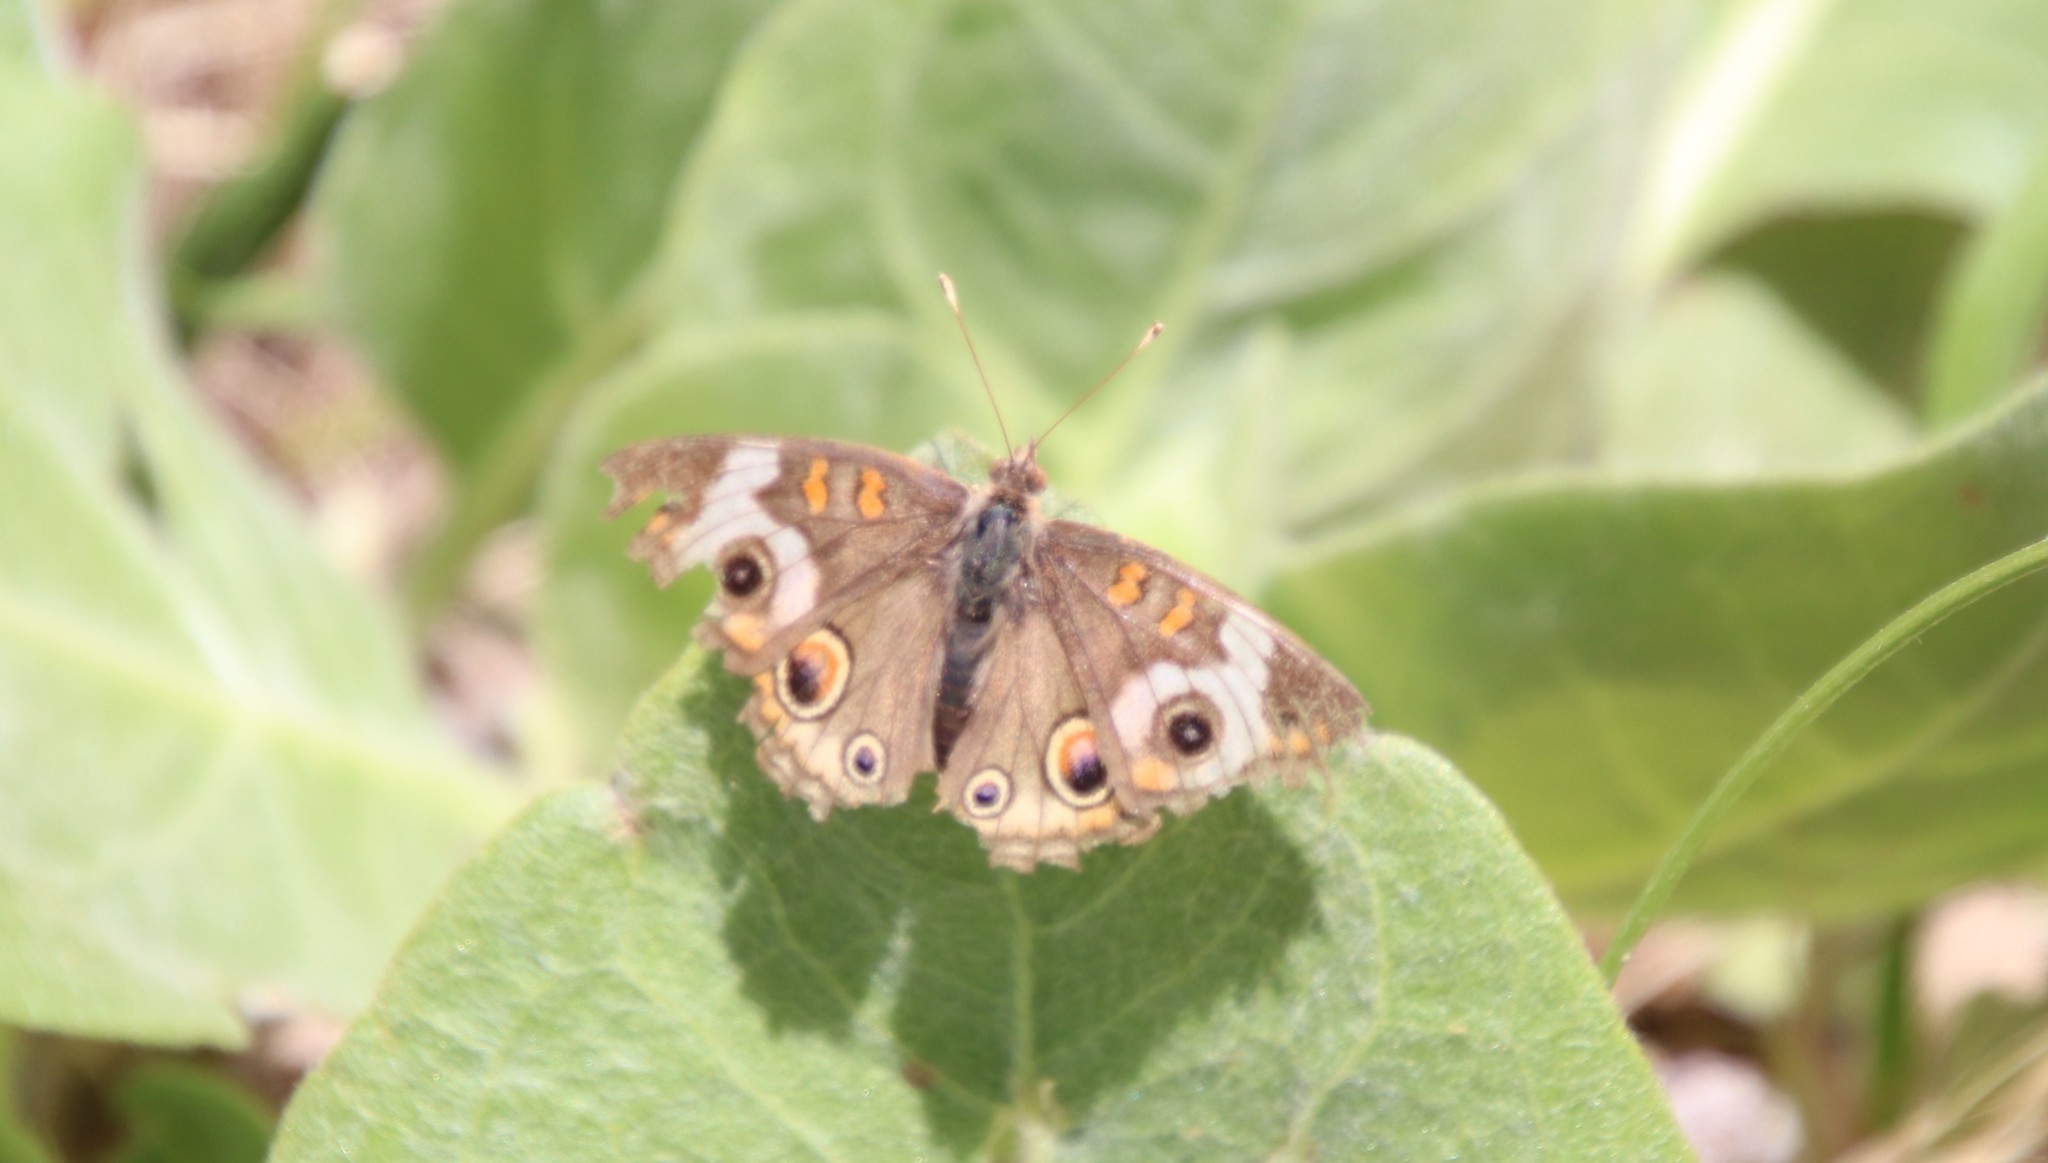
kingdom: Animalia
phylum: Arthropoda
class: Insecta
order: Lepidoptera
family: Nymphalidae
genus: Junonia
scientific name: Junonia grisea
